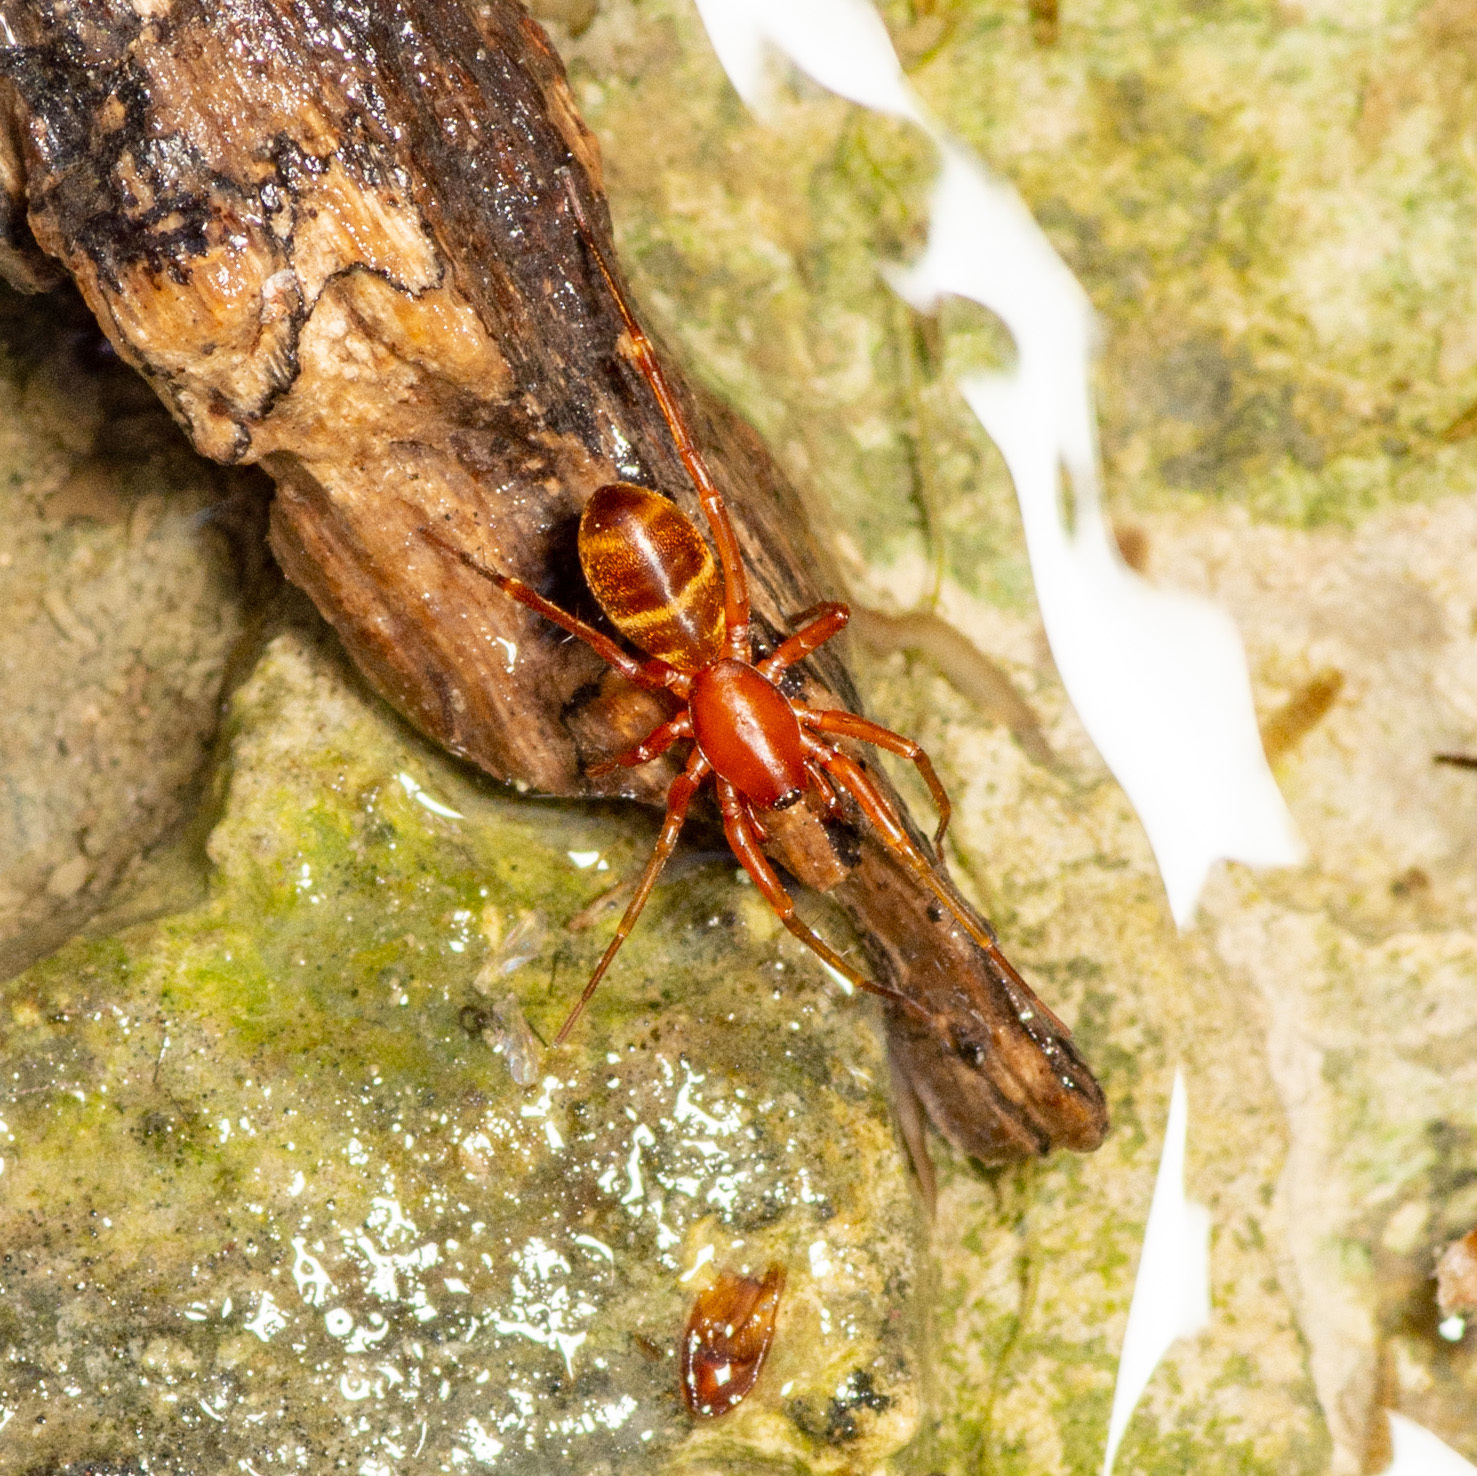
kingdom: Animalia
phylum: Arthropoda
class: Arachnida
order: Araneae
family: Corinnidae
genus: Castianeira
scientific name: Castianeira trilineata
